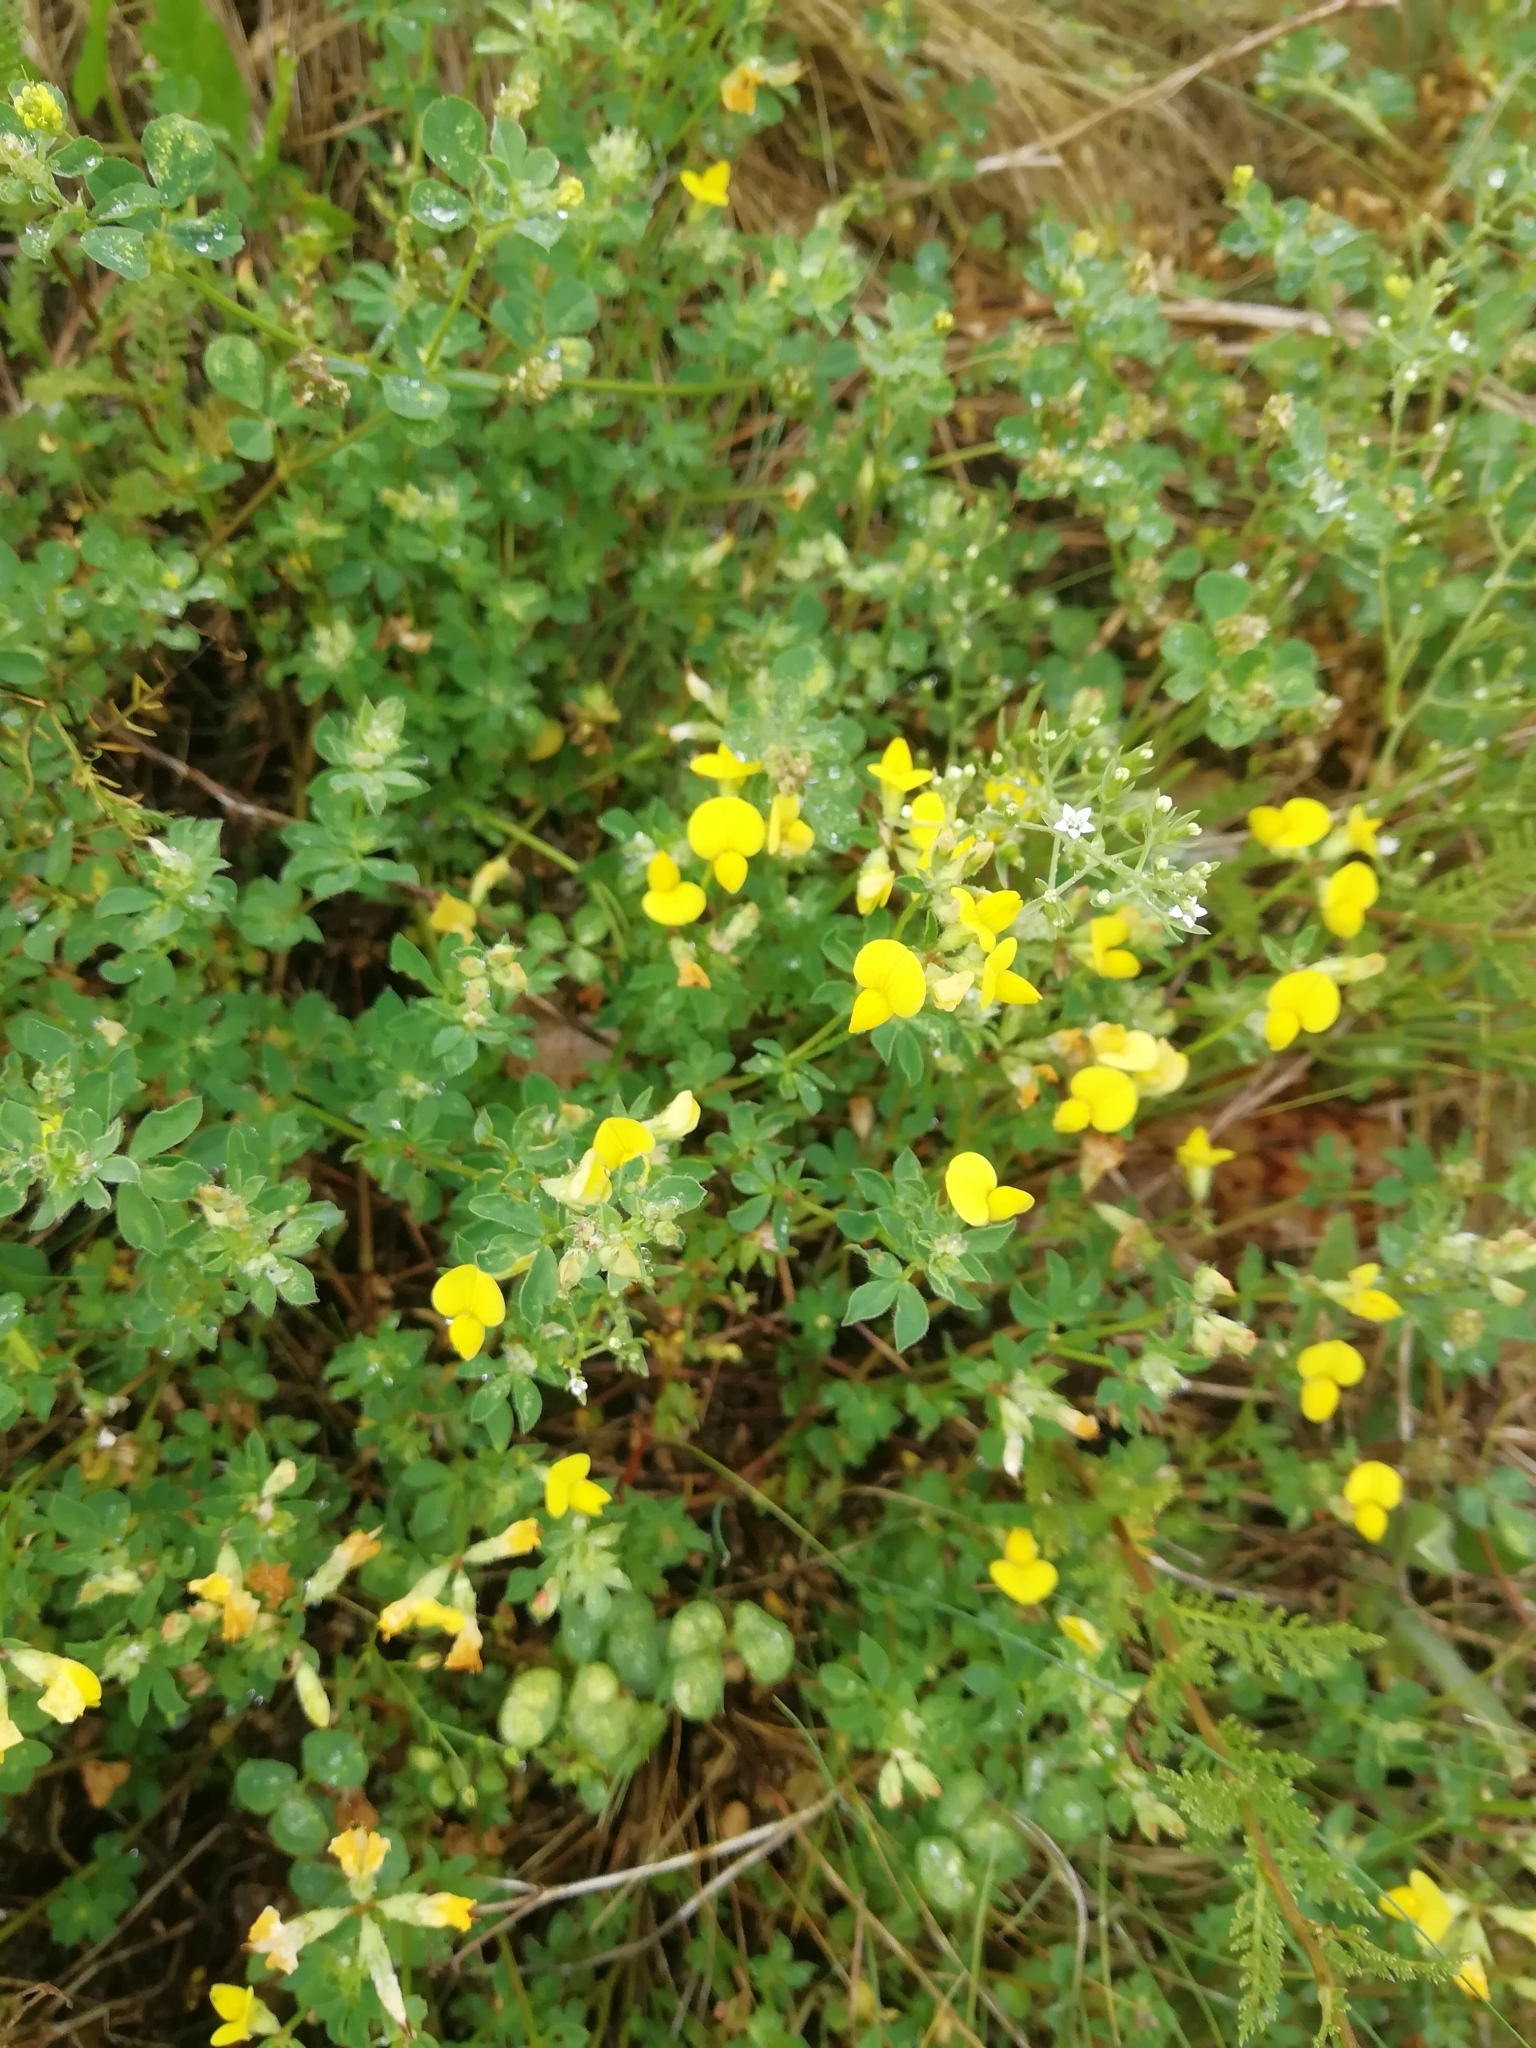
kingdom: Plantae
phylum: Tracheophyta
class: Magnoliopsida
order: Fabales
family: Fabaceae
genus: Lotus
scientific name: Lotus corniculatus
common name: Common bird's-foot-trefoil
